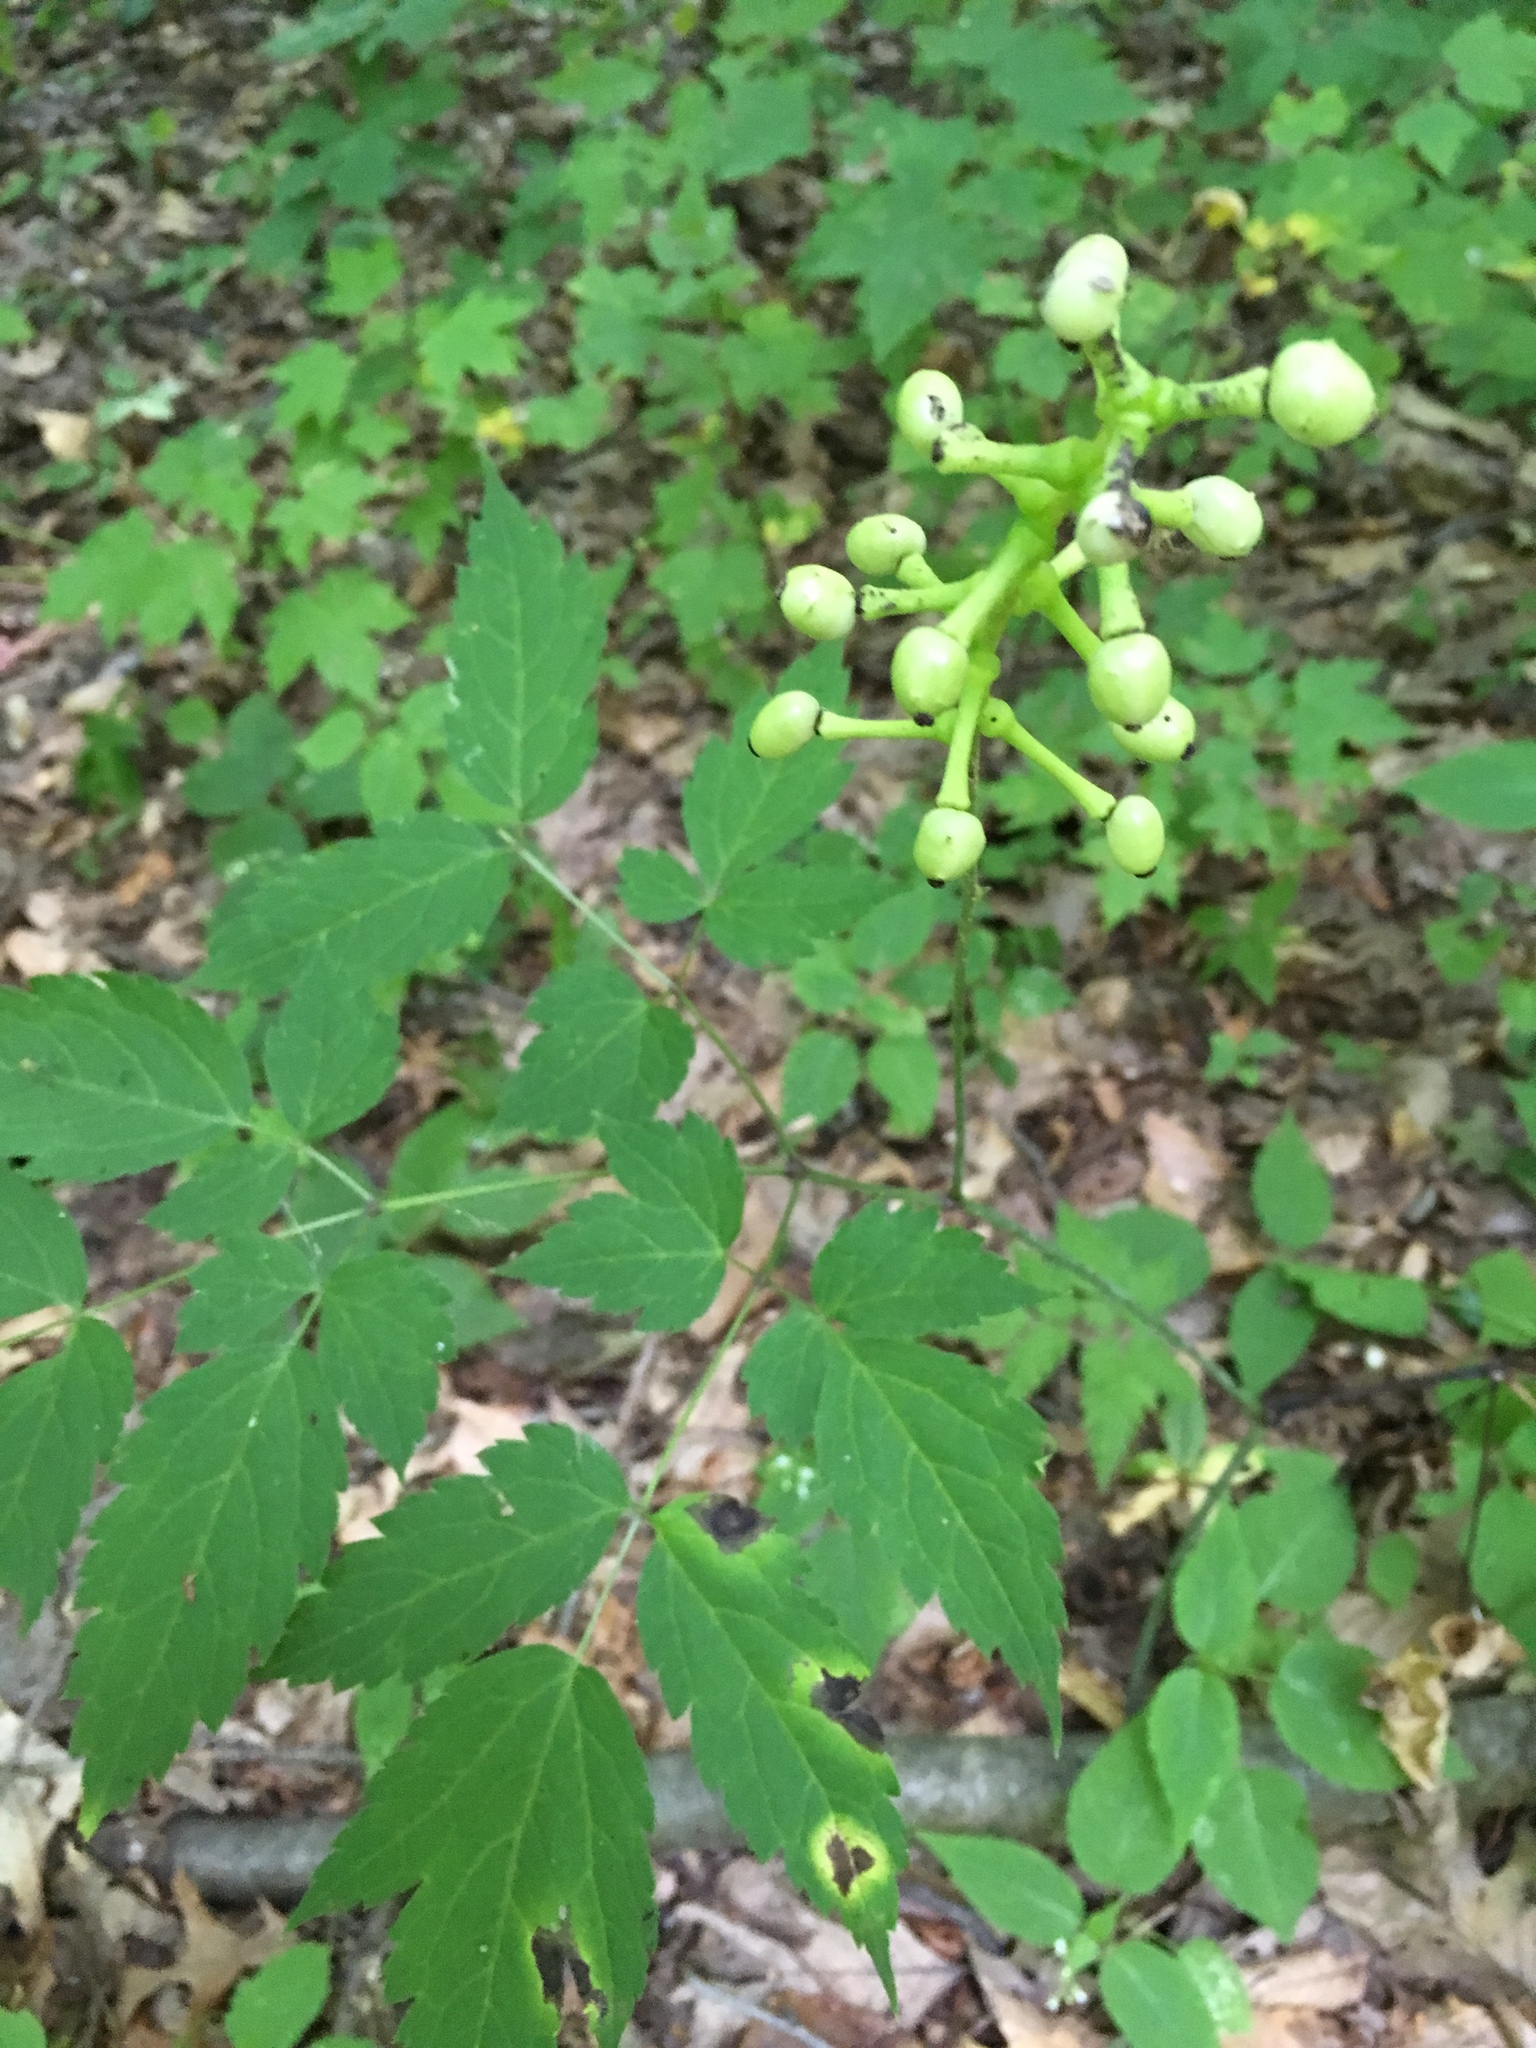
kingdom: Plantae
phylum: Tracheophyta
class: Magnoliopsida
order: Ranunculales
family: Ranunculaceae
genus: Actaea
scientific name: Actaea pachypoda
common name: Doll's-eyes
